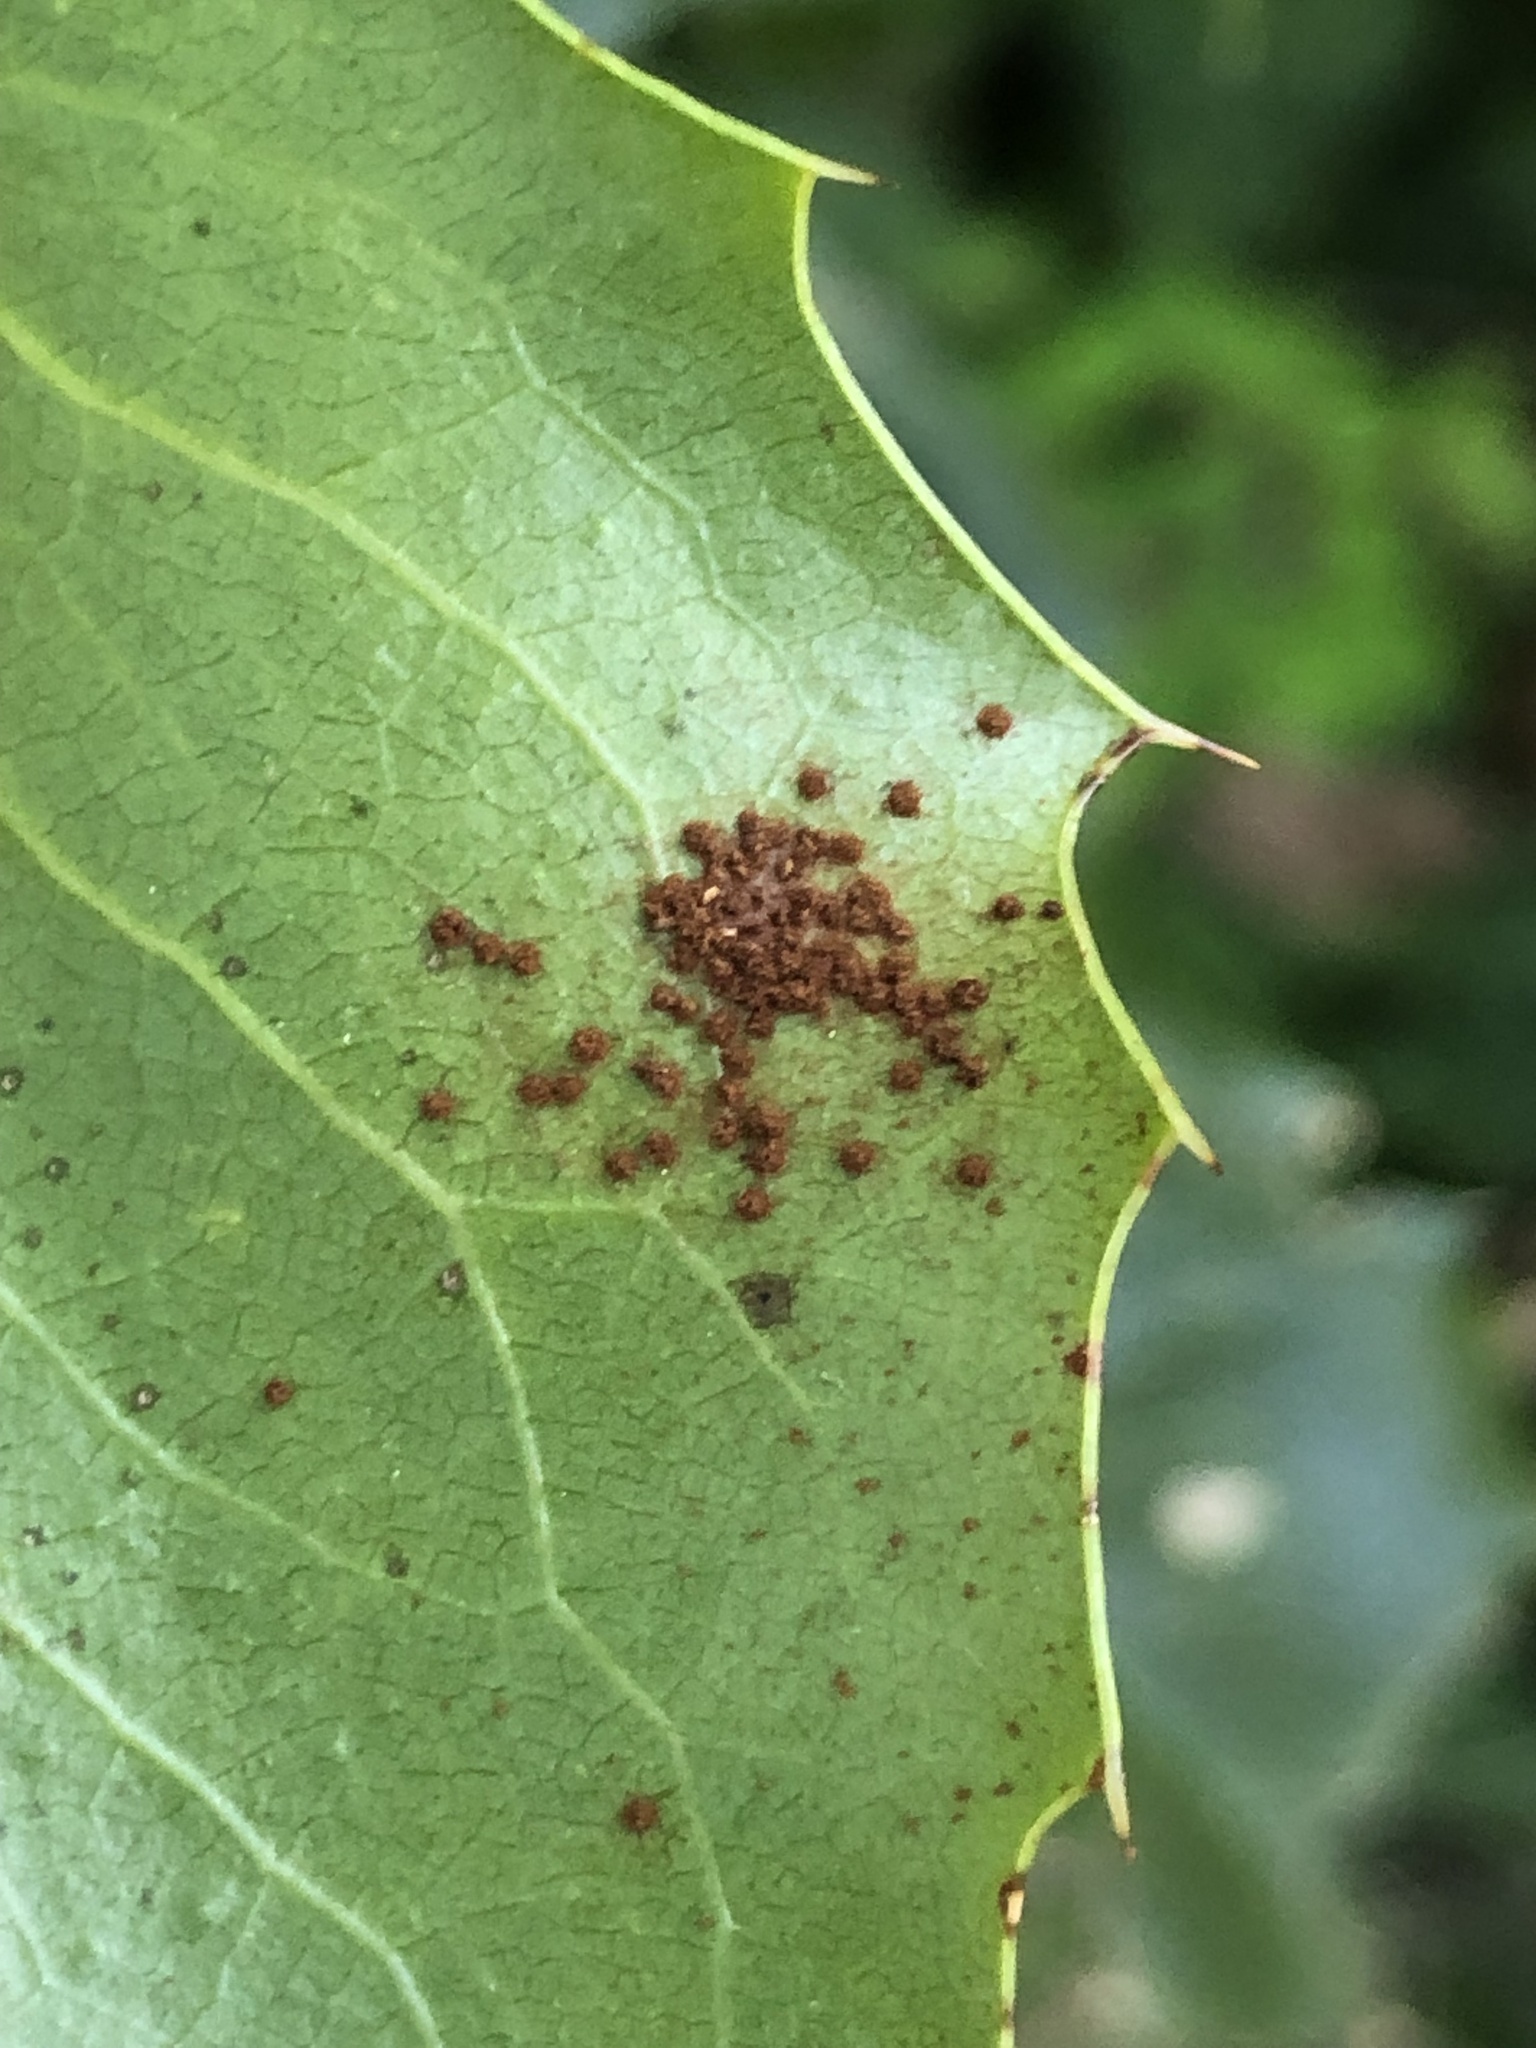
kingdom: Fungi
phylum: Basidiomycota
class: Pucciniomycetes
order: Pucciniales
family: Pucciniaceae
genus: Cumminsiella
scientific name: Cumminsiella mirabilissima
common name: Mahonia rust
